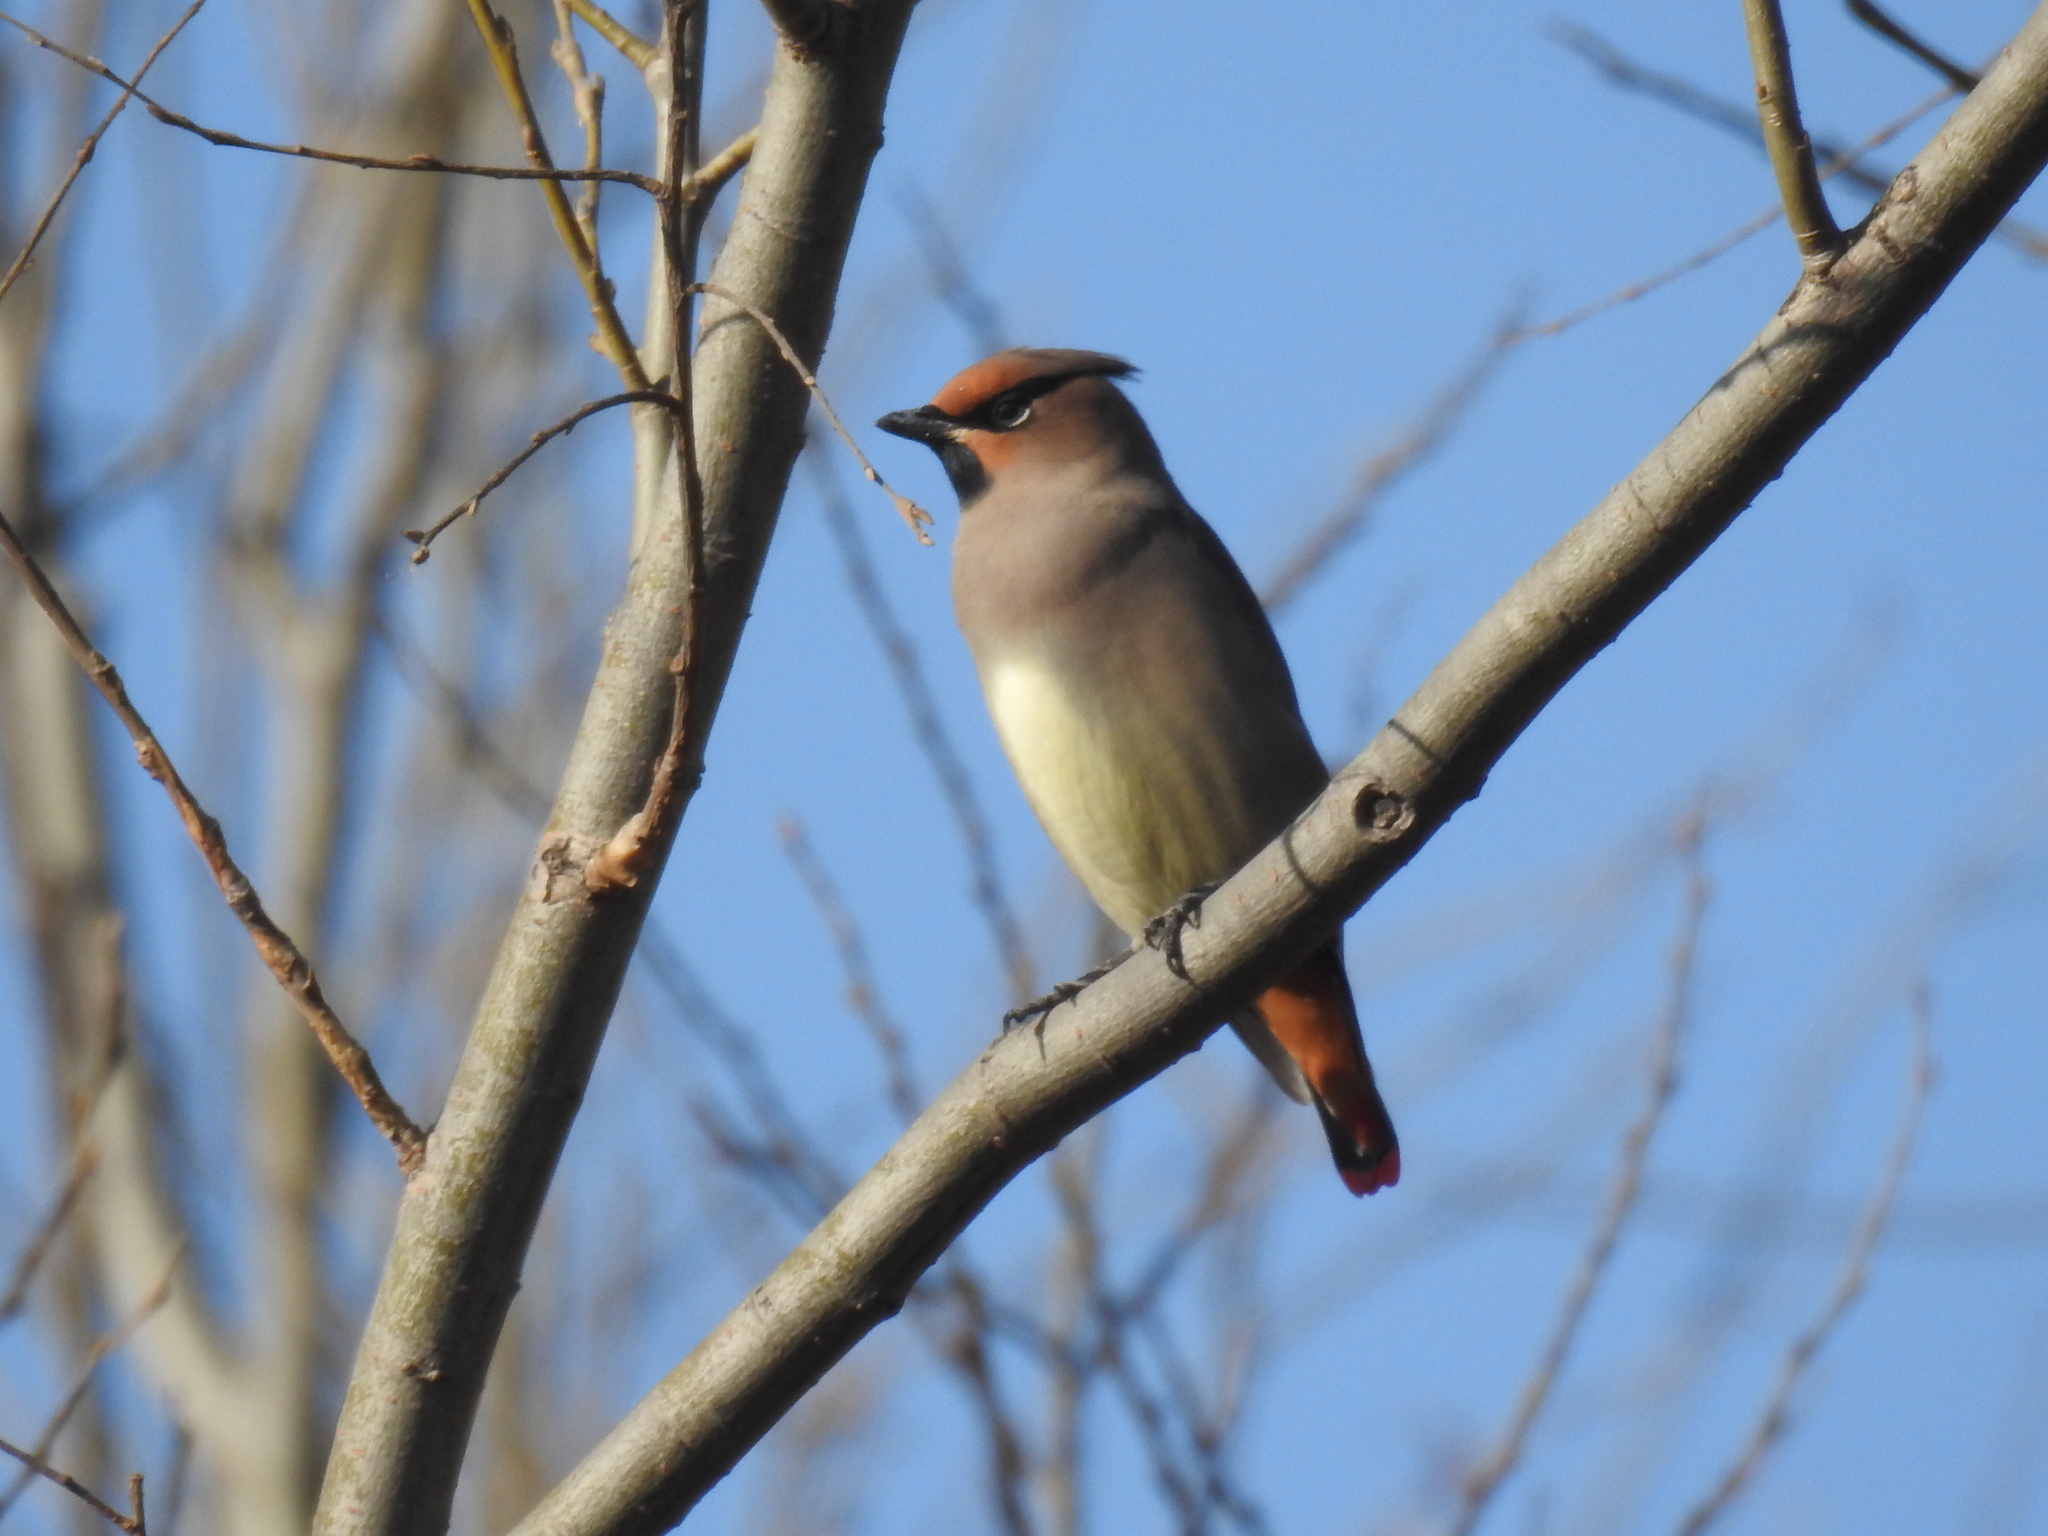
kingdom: Animalia
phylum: Chordata
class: Aves
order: Passeriformes
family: Bombycillidae
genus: Bombycilla
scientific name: Bombycilla japonica
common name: Japanese waxwing
